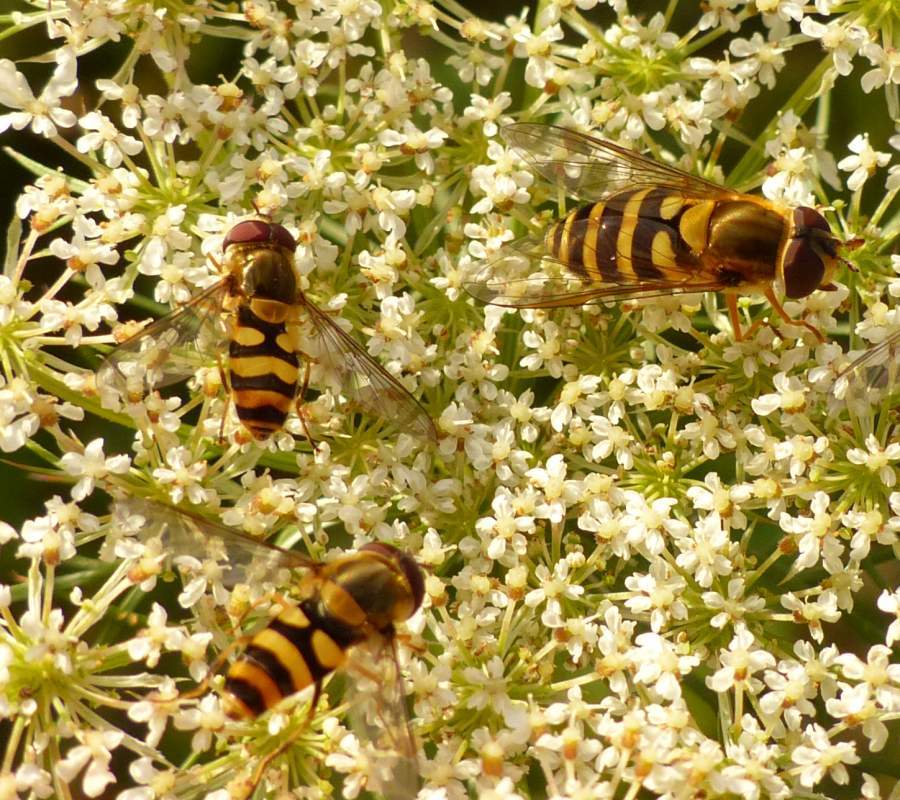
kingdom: Animalia
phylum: Arthropoda
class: Insecta
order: Diptera
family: Syrphidae
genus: Syrphus
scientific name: Syrphus
